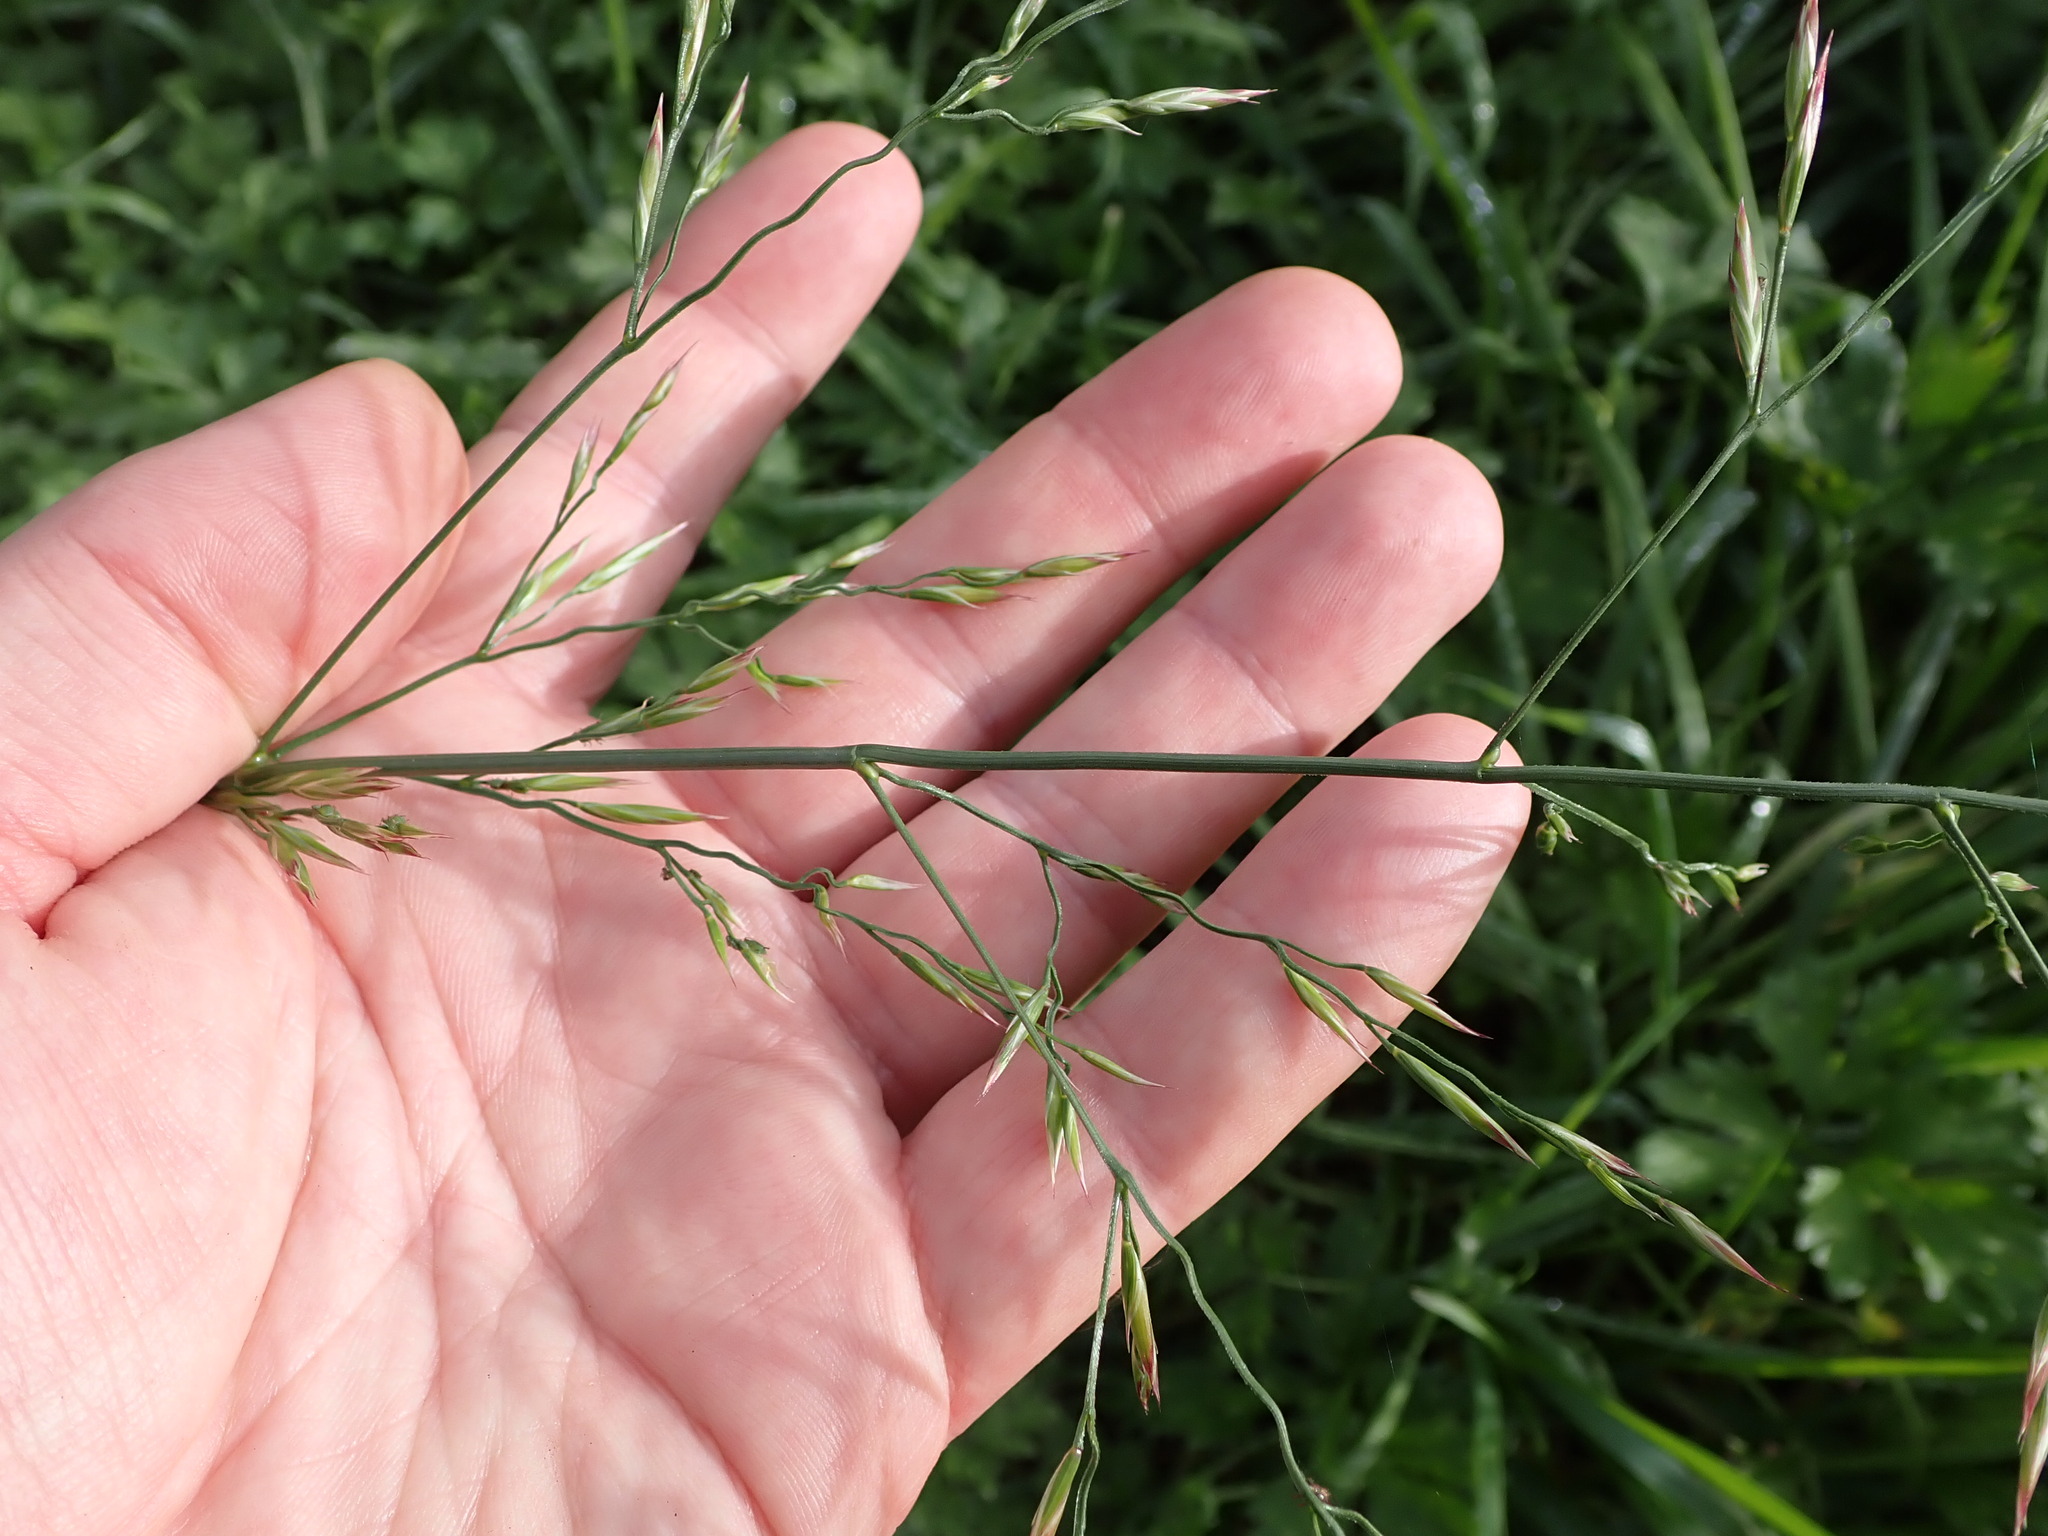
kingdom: Plantae
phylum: Tracheophyta
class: Liliopsida
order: Poales
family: Poaceae
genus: Arrhenatherum
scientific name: Arrhenatherum elatius
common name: Tall oatgrass
